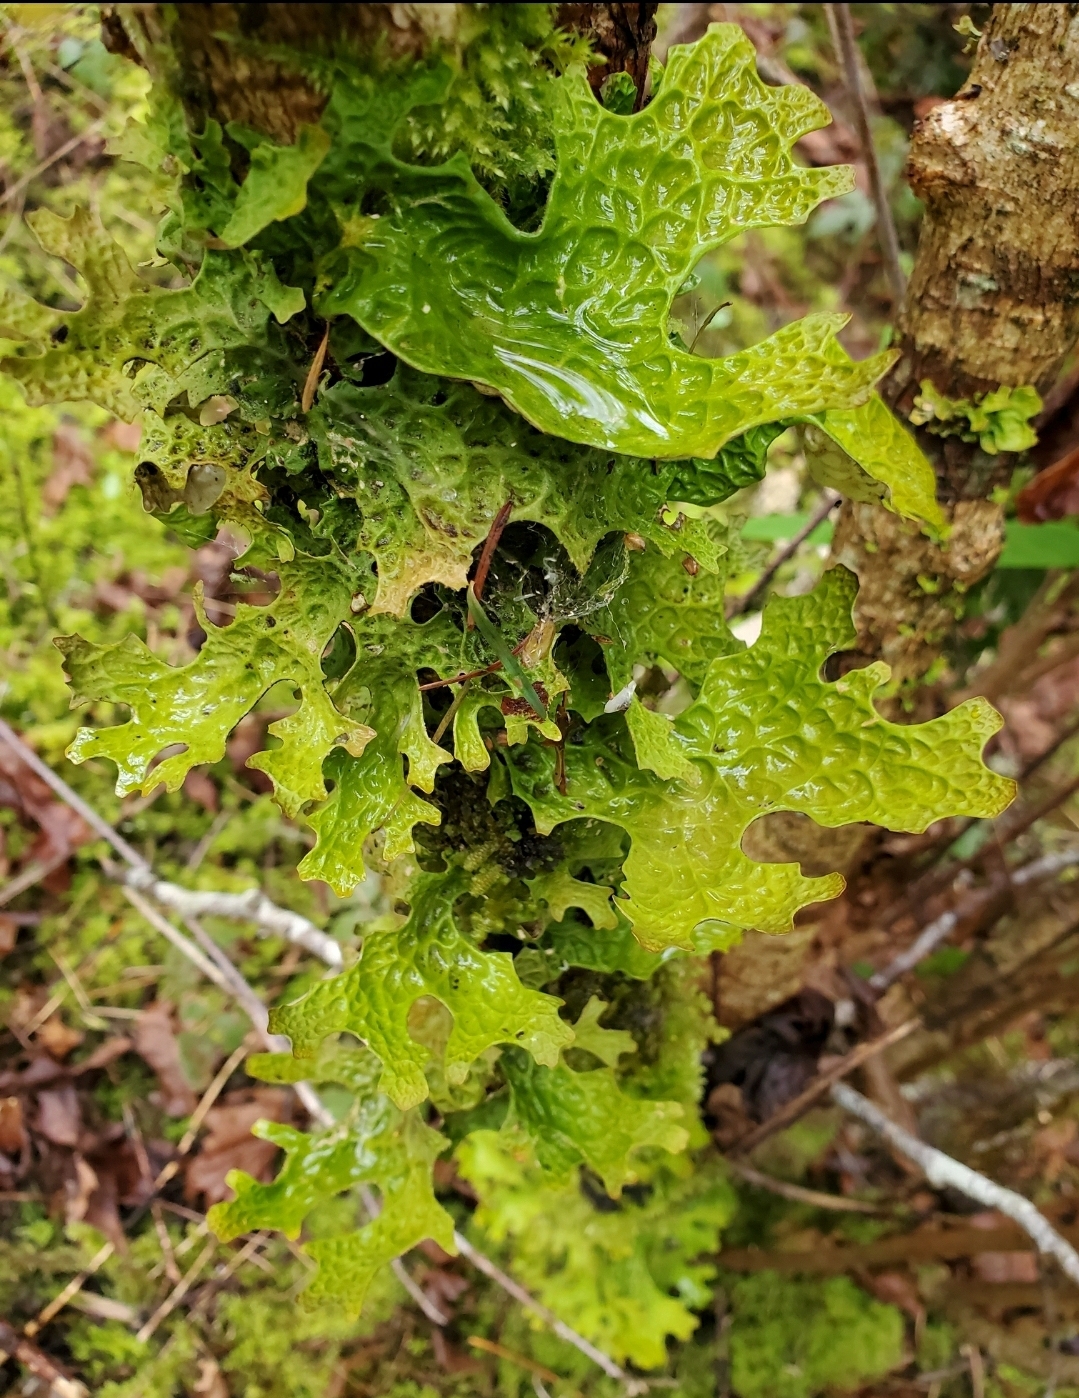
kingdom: Fungi
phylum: Ascomycota
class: Lecanoromycetes
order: Peltigerales
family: Lobariaceae
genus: Lobaria
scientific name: Lobaria pulmonaria
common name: Lungwort
